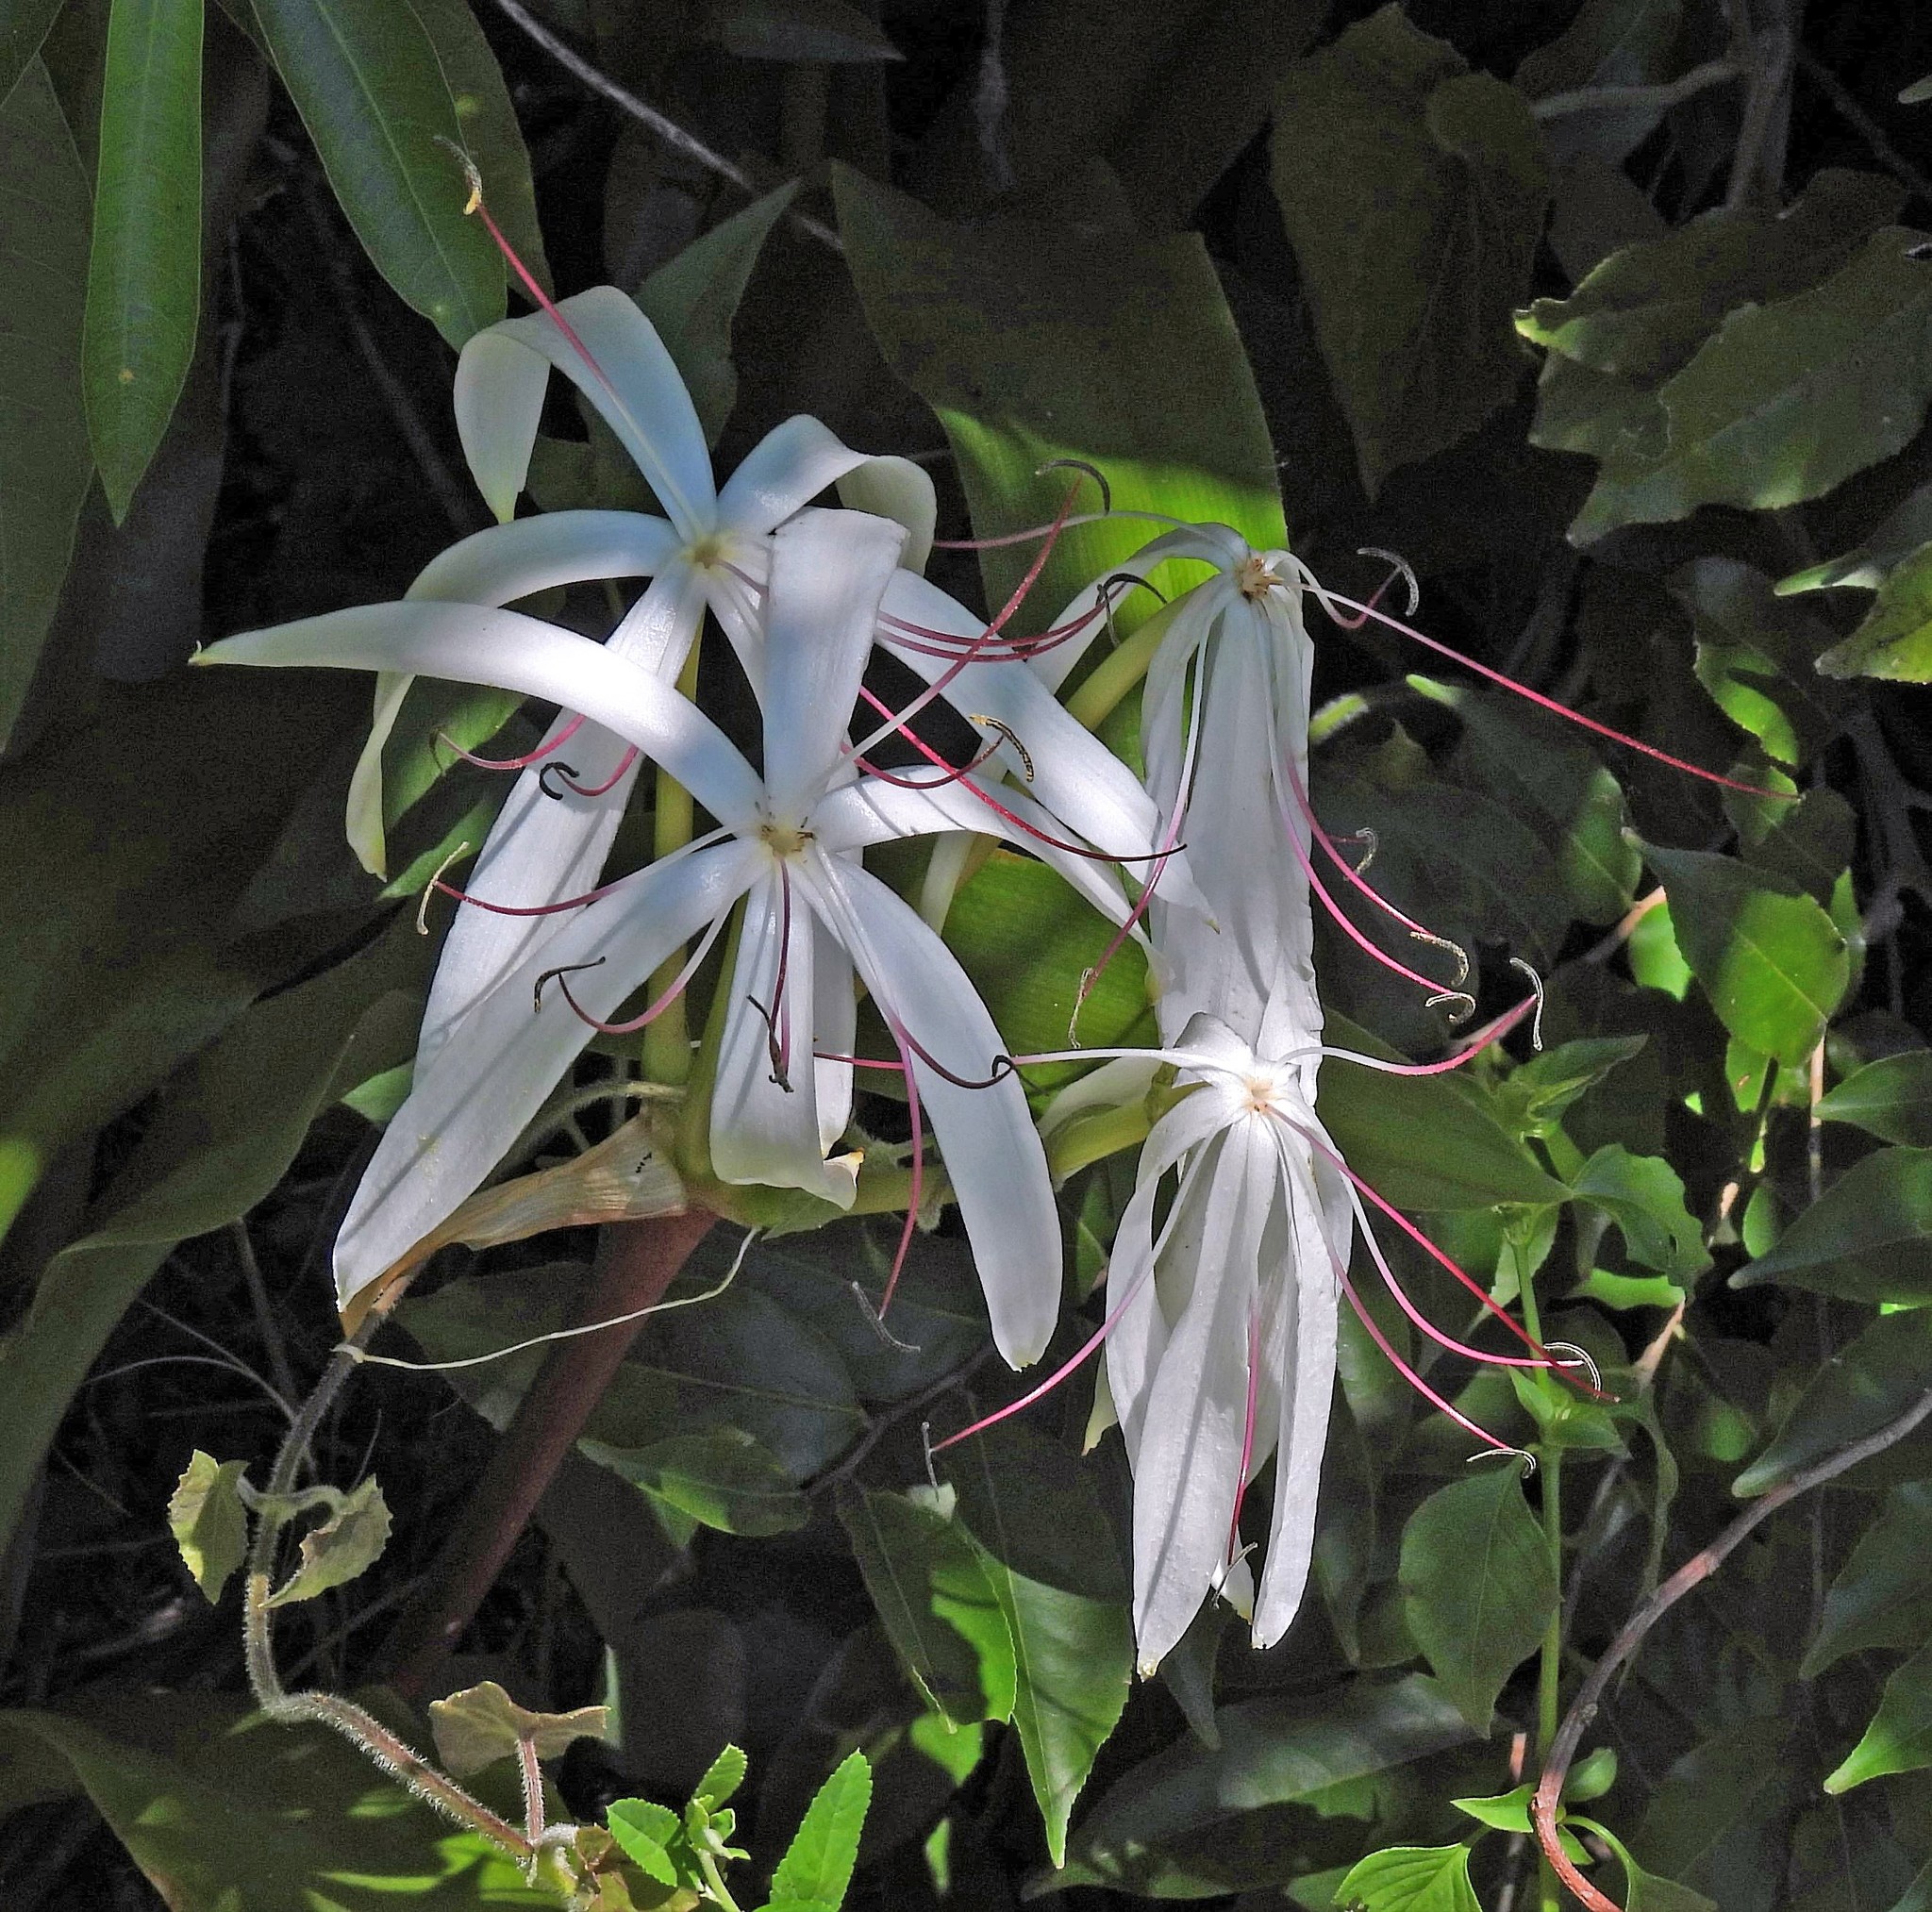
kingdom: Plantae
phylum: Tracheophyta
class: Liliopsida
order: Asparagales
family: Amaryllidaceae
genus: Crinum
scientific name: Crinum americanum
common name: Florida swamp-lily
